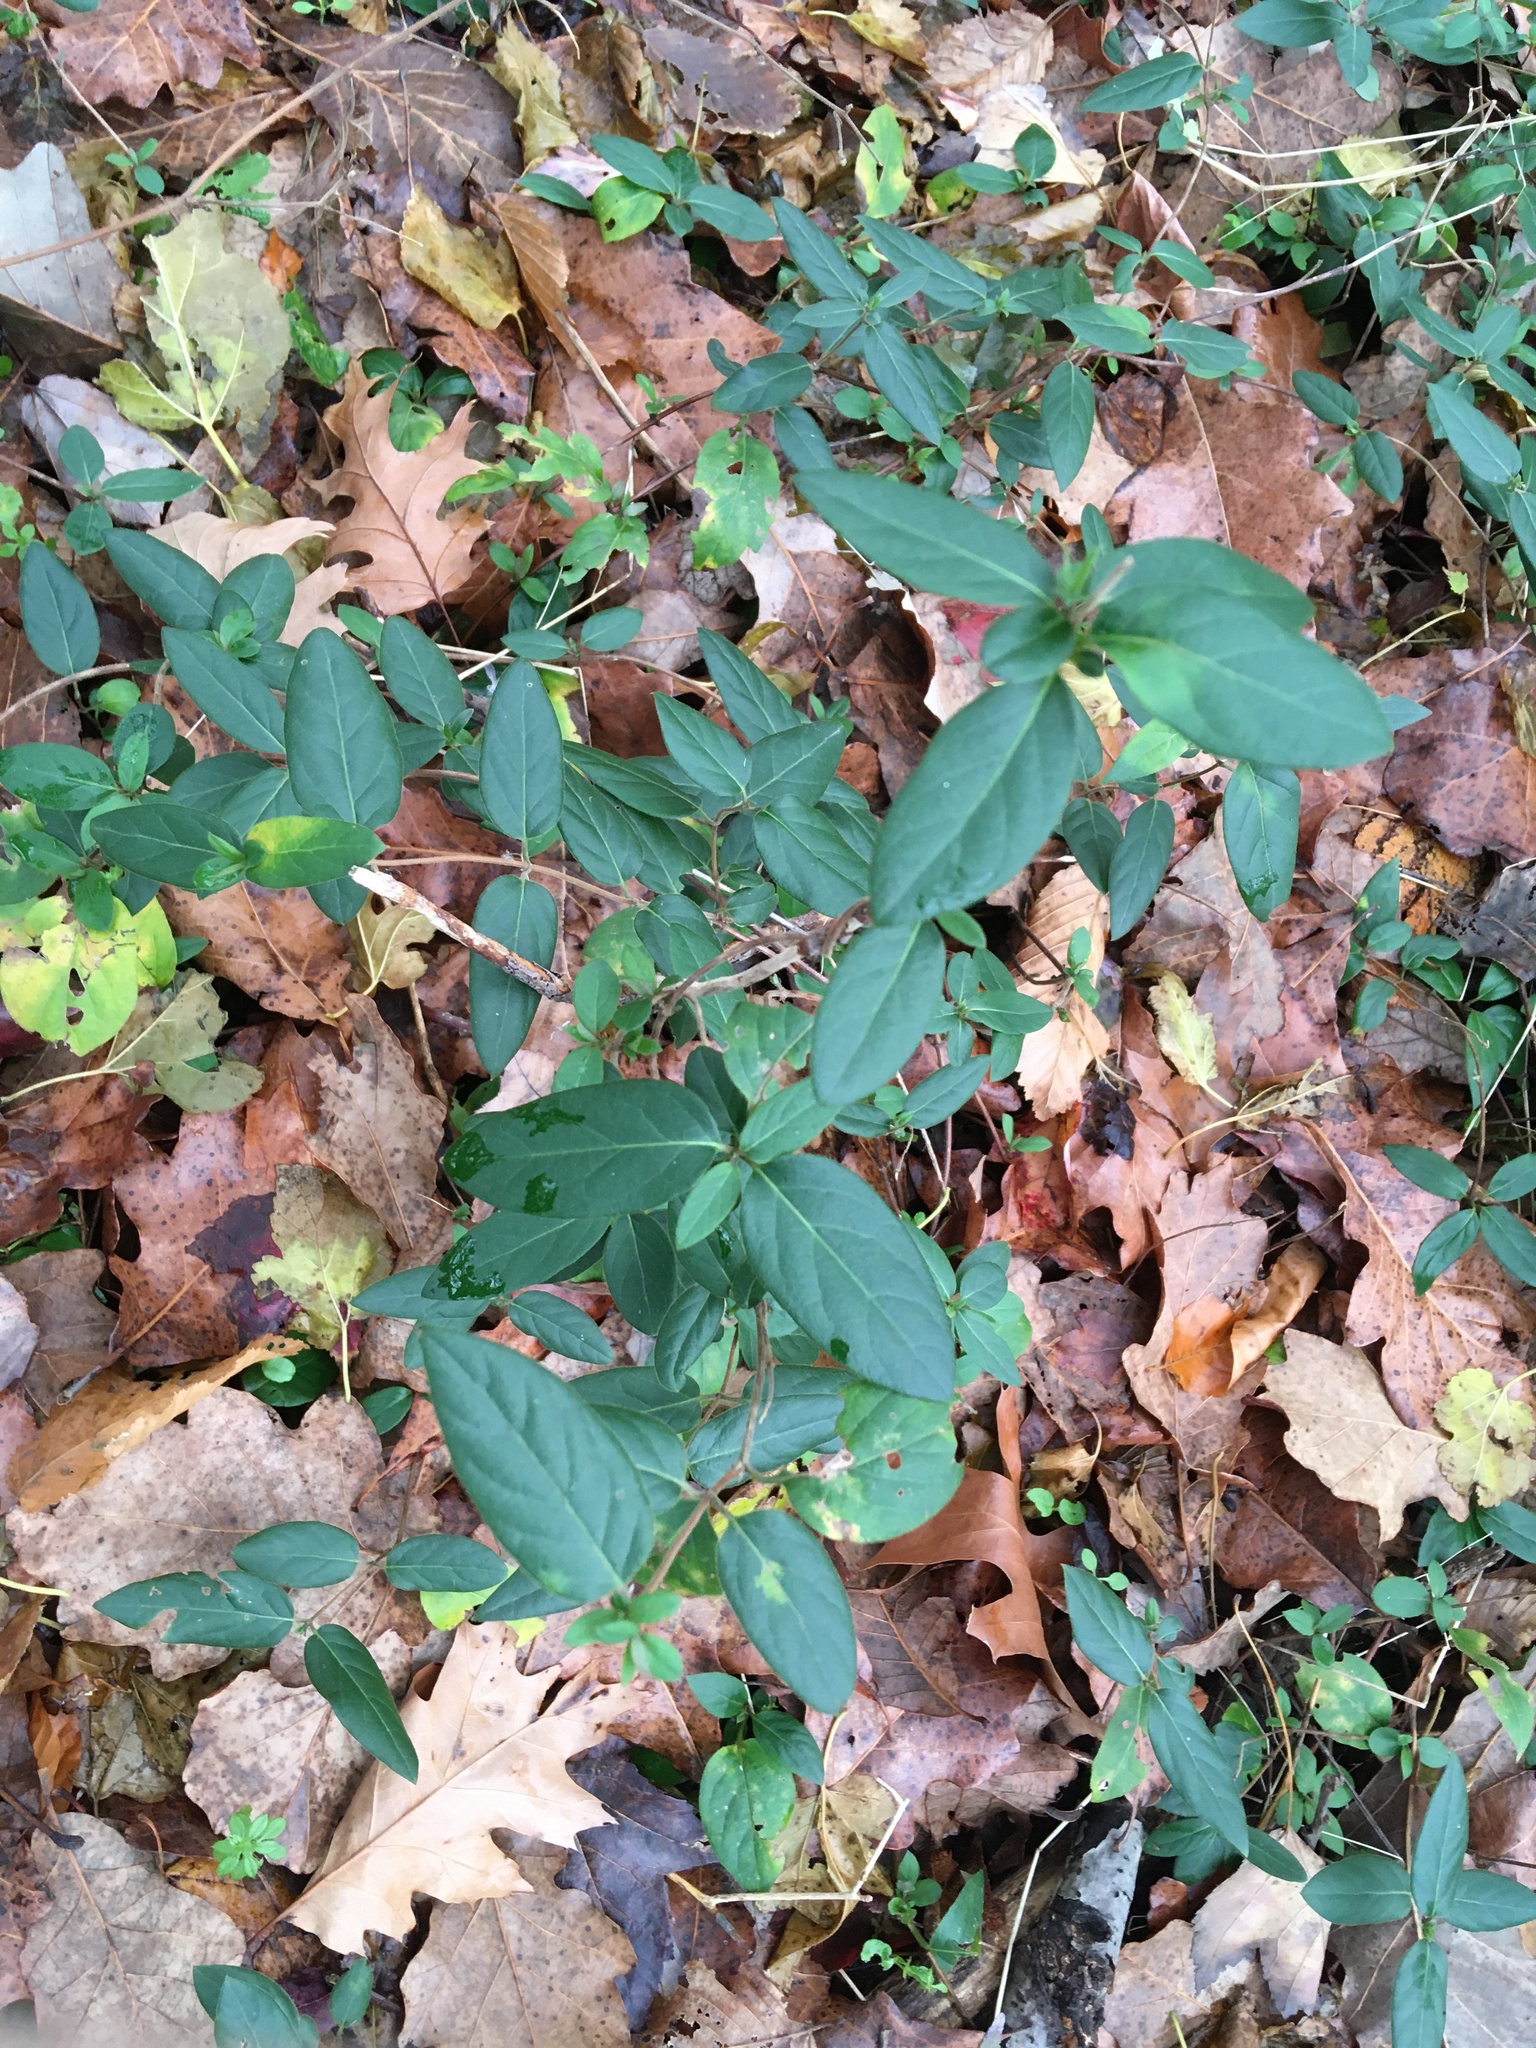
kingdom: Plantae
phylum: Tracheophyta
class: Magnoliopsida
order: Dipsacales
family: Caprifoliaceae
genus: Lonicera
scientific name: Lonicera japonica
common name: Japanese honeysuckle
